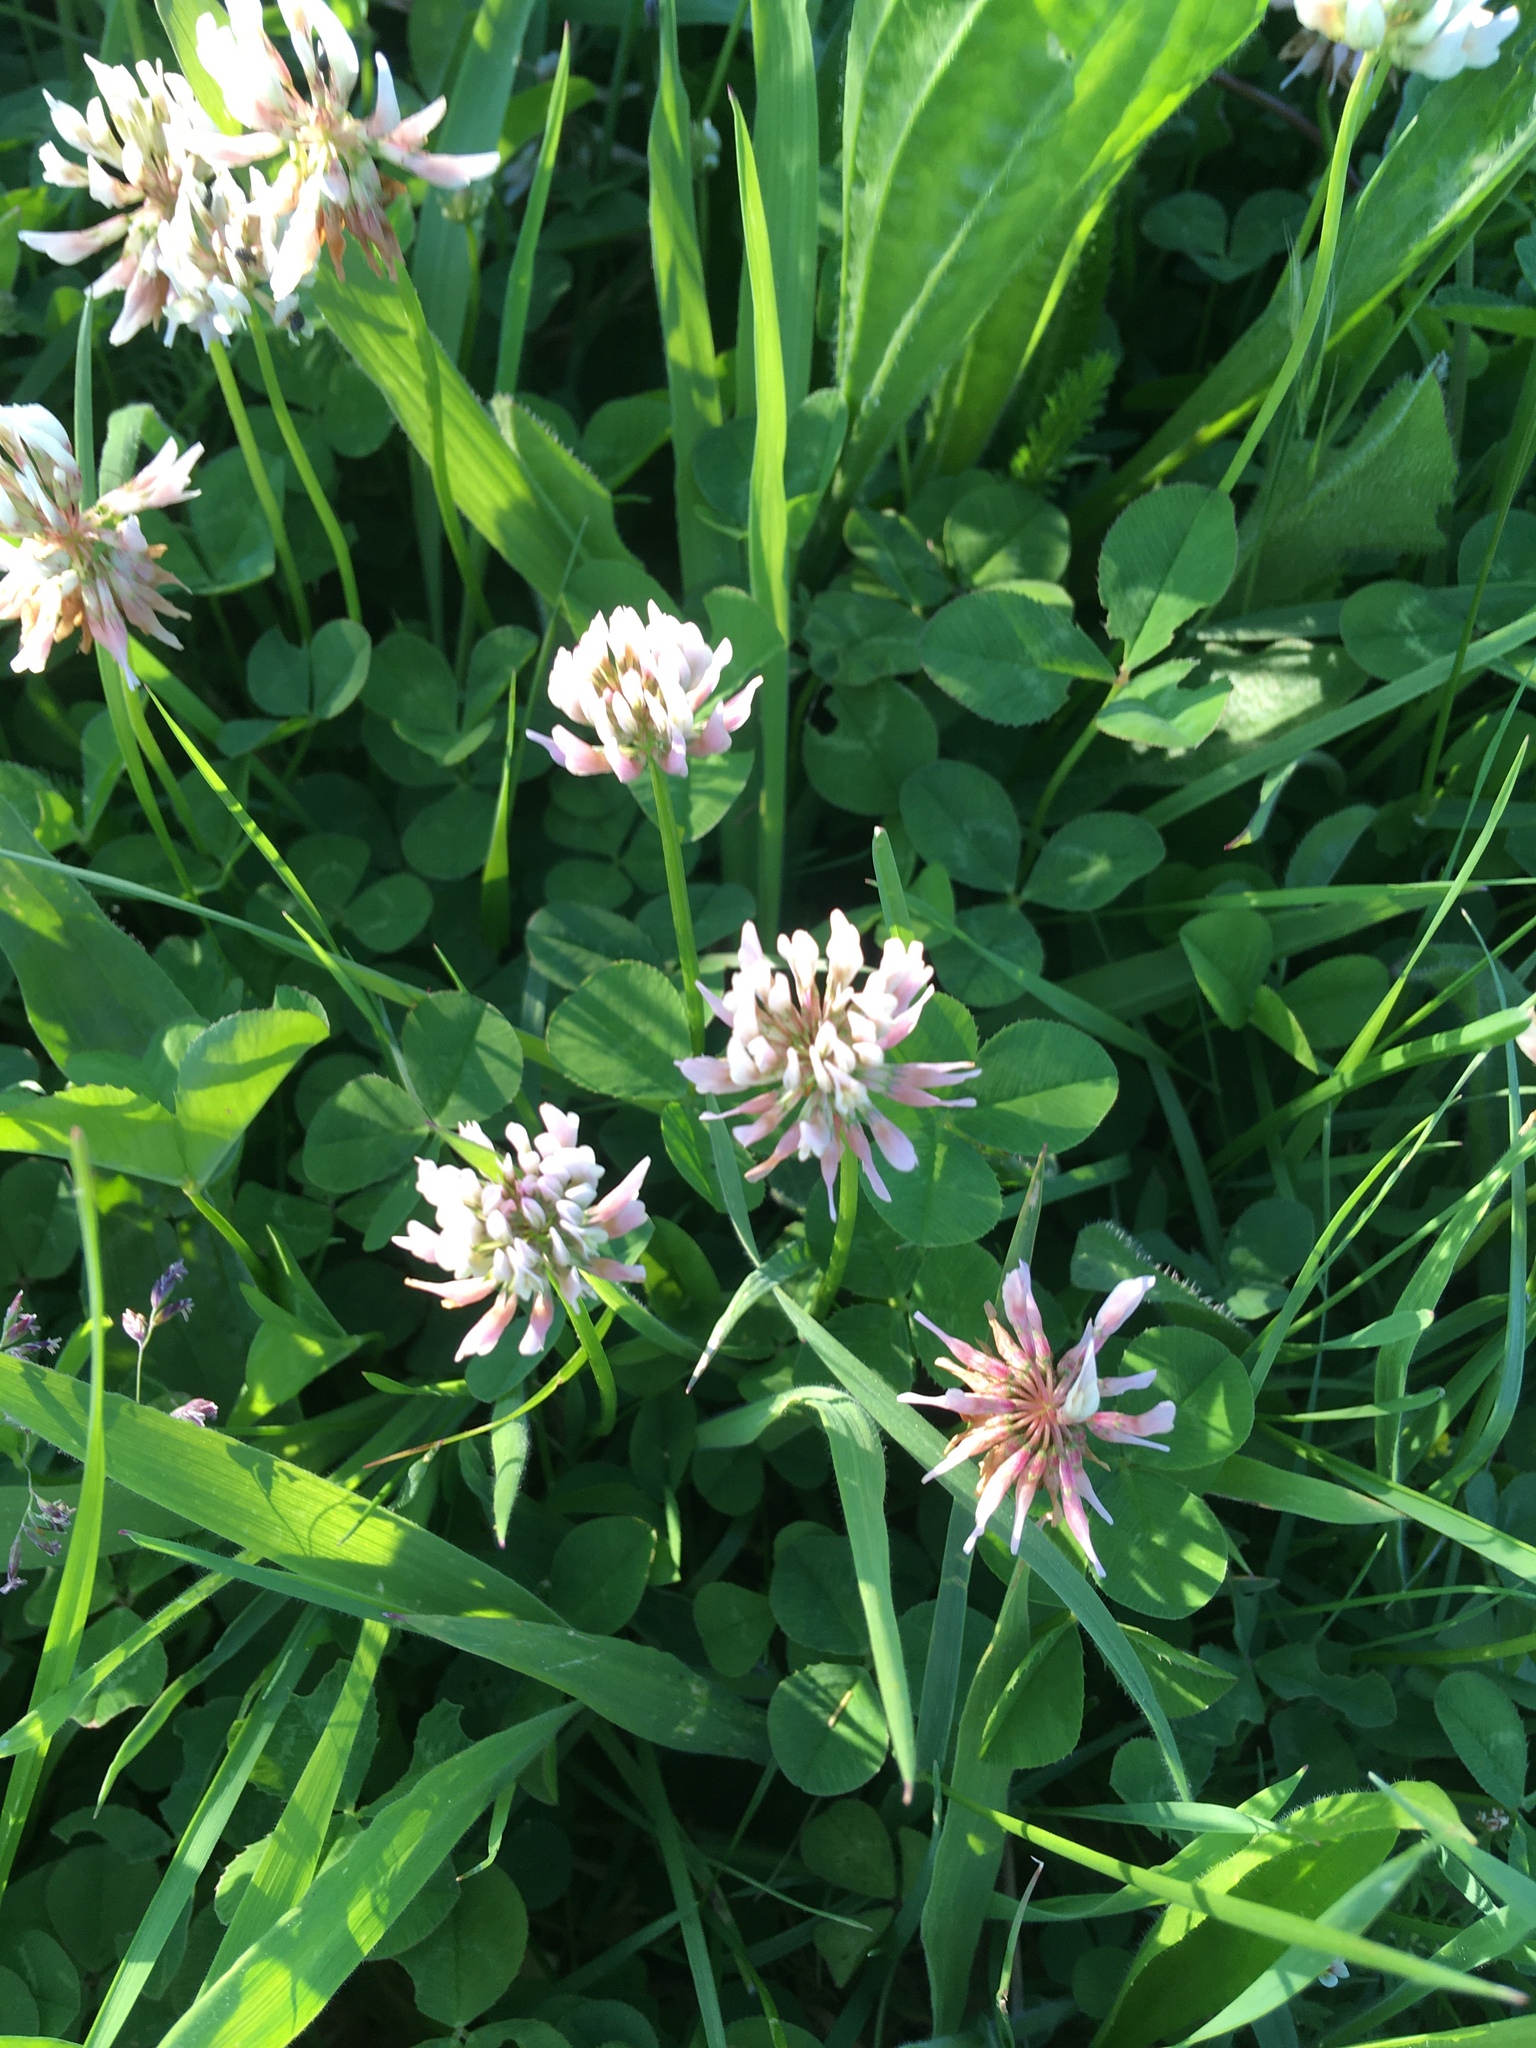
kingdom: Plantae
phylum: Tracheophyta
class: Magnoliopsida
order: Fabales
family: Fabaceae
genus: Trifolium
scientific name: Trifolium repens
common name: White clover
